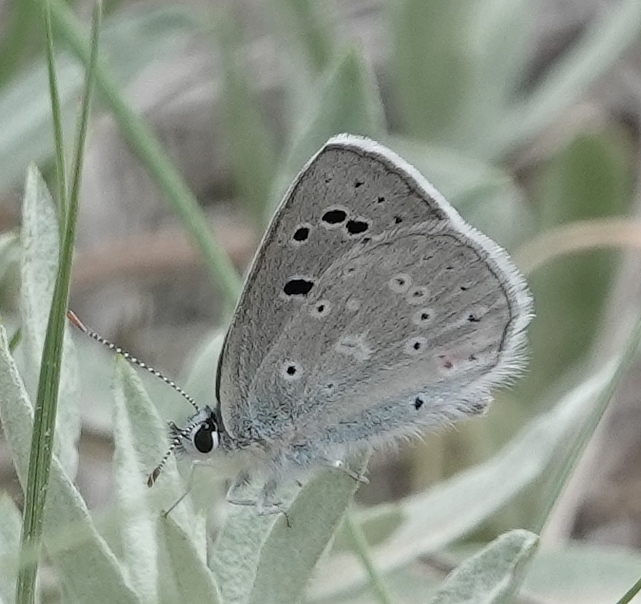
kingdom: Animalia
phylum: Arthropoda
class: Insecta
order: Lepidoptera
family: Lycaenidae
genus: Icaricia
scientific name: Icaricia icarioides
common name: Boisduval's blue
